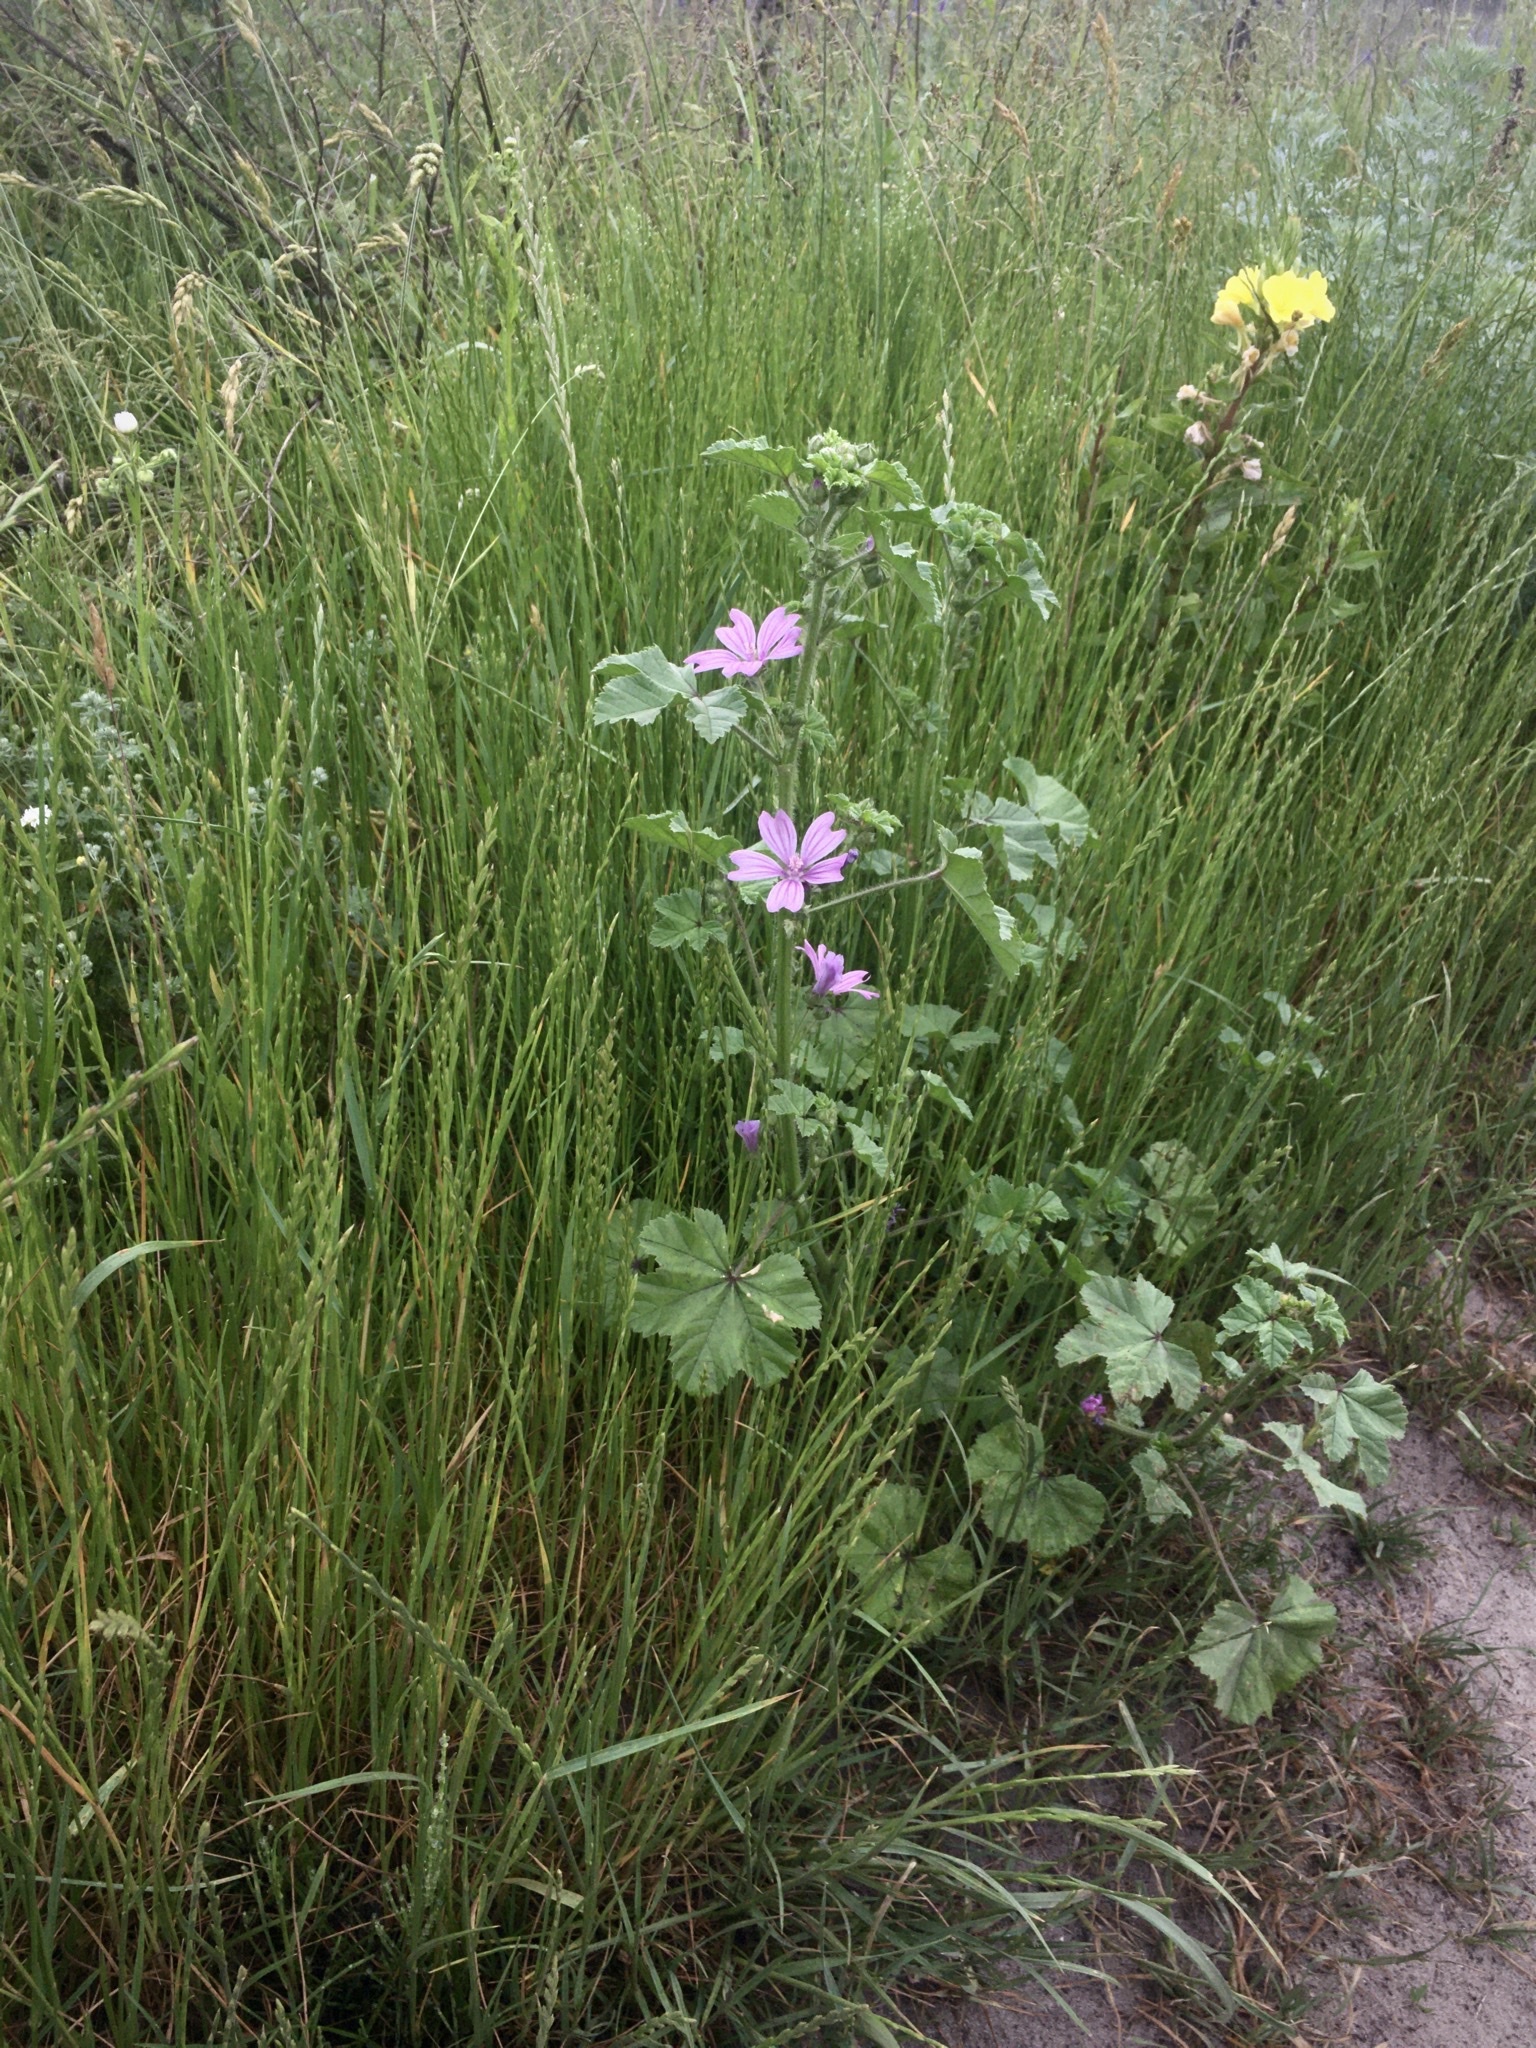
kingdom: Plantae
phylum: Tracheophyta
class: Magnoliopsida
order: Malvales
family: Malvaceae
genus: Malva
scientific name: Malva sylvestris
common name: Common mallow
